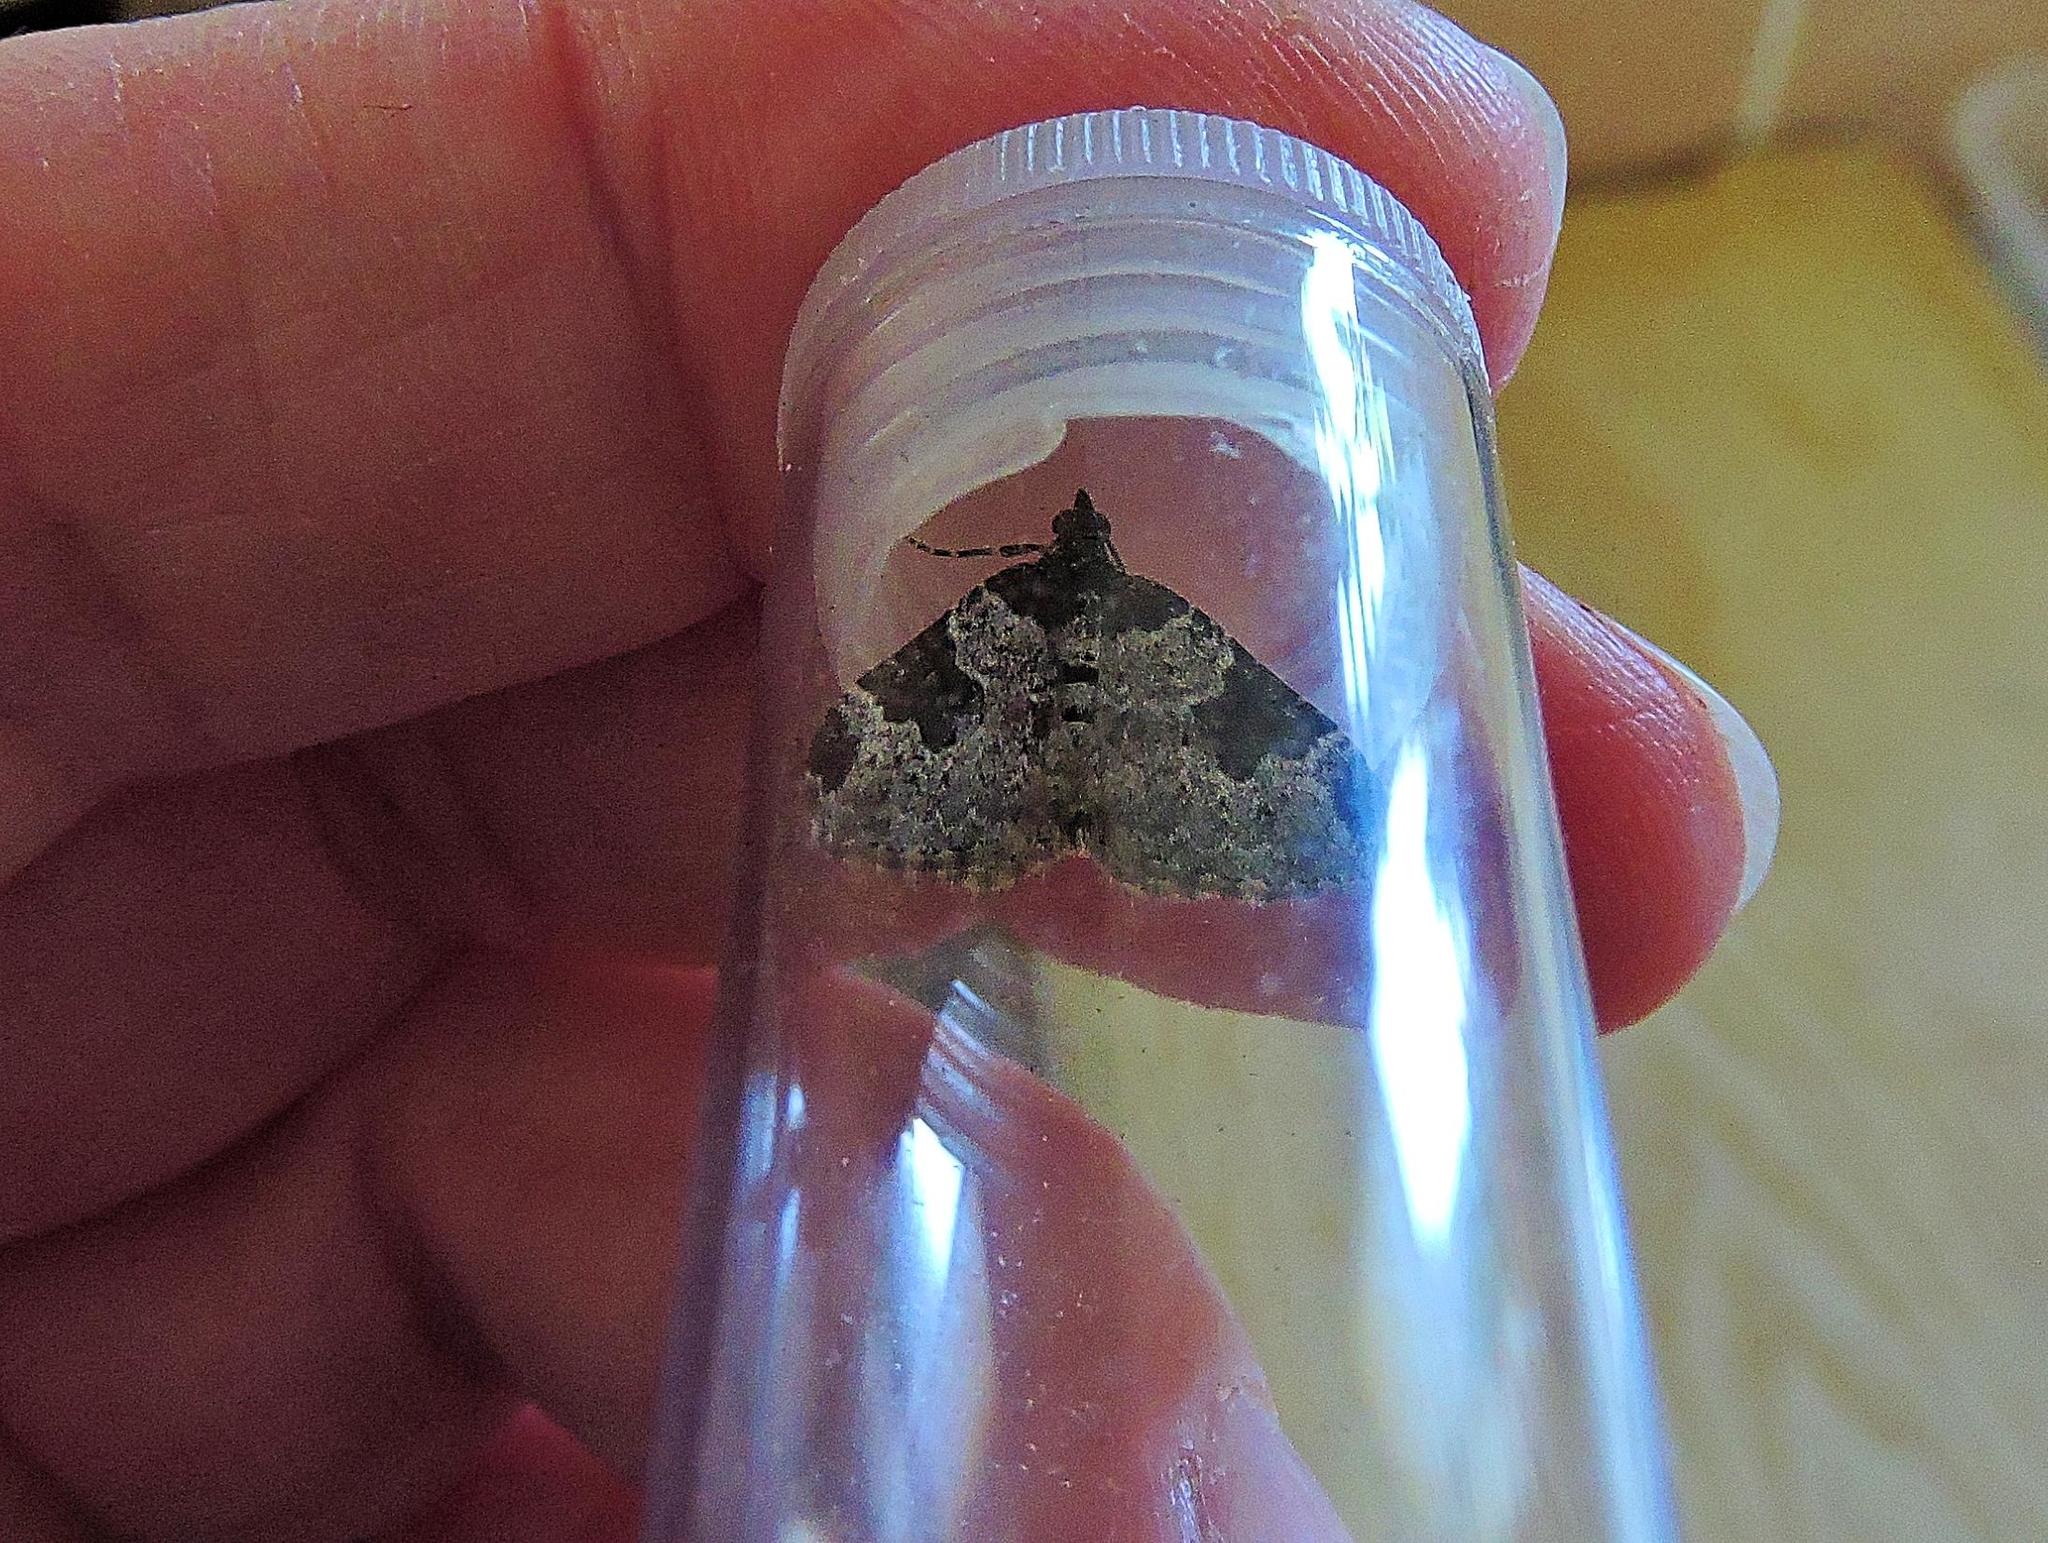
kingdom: Animalia
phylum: Arthropoda
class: Insecta
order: Lepidoptera
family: Geometridae
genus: Xanthorhoe
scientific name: Xanthorhoe fluctuata
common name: Garden carpet
